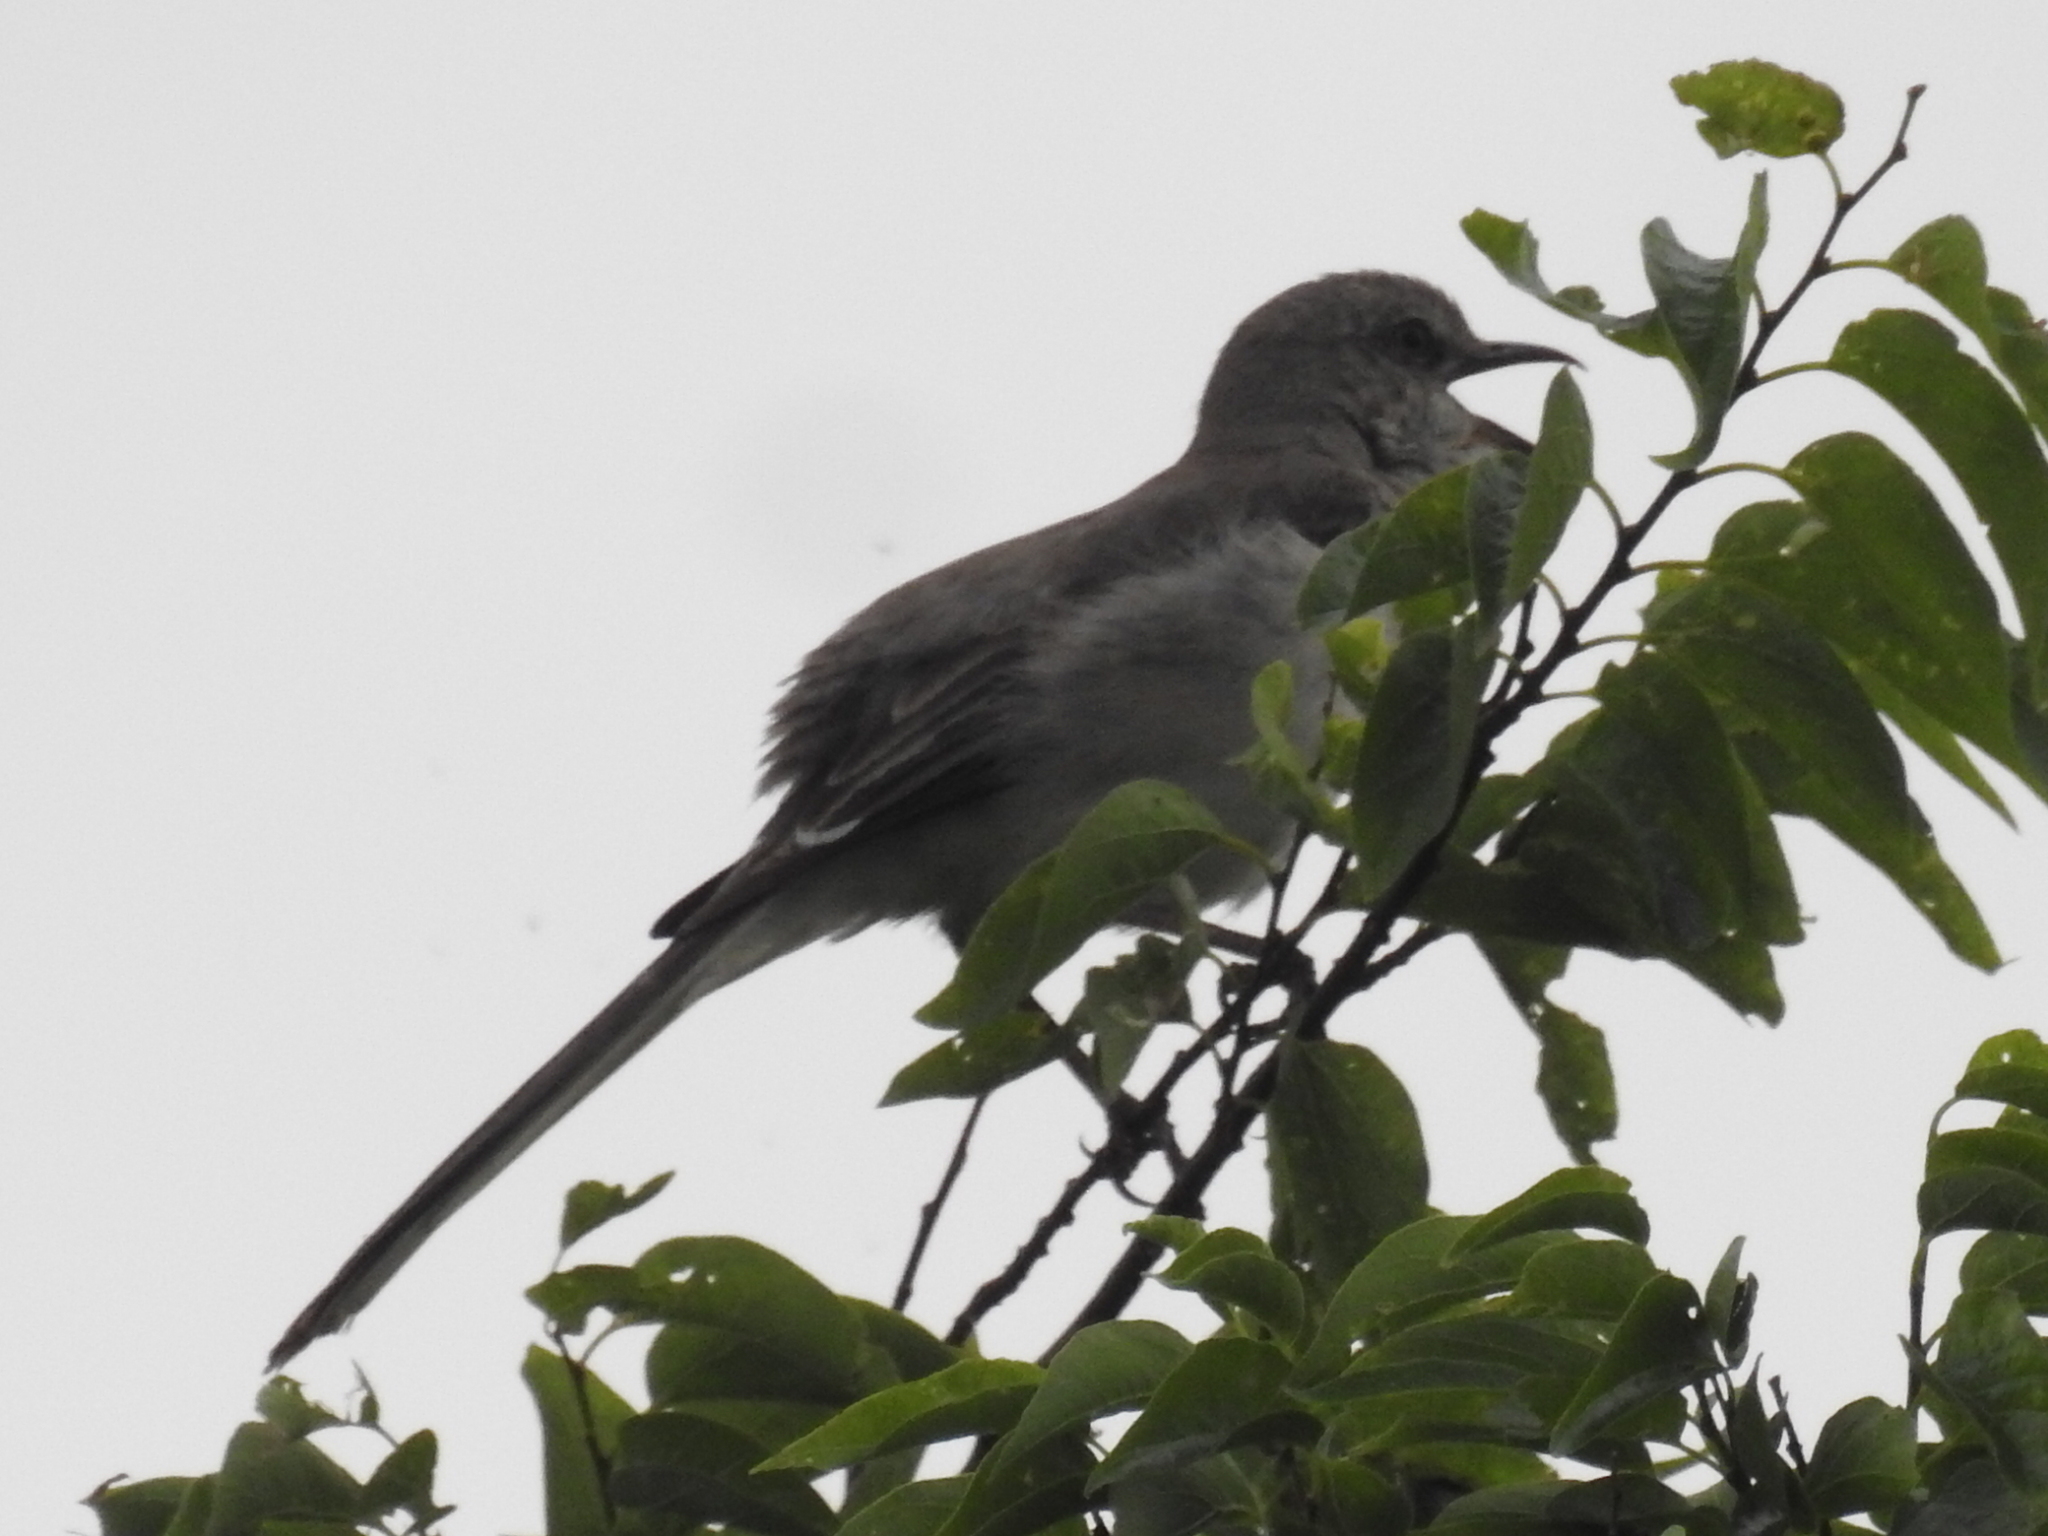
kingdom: Animalia
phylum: Chordata
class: Aves
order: Passeriformes
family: Mimidae
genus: Mimus
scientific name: Mimus polyglottos
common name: Northern mockingbird
